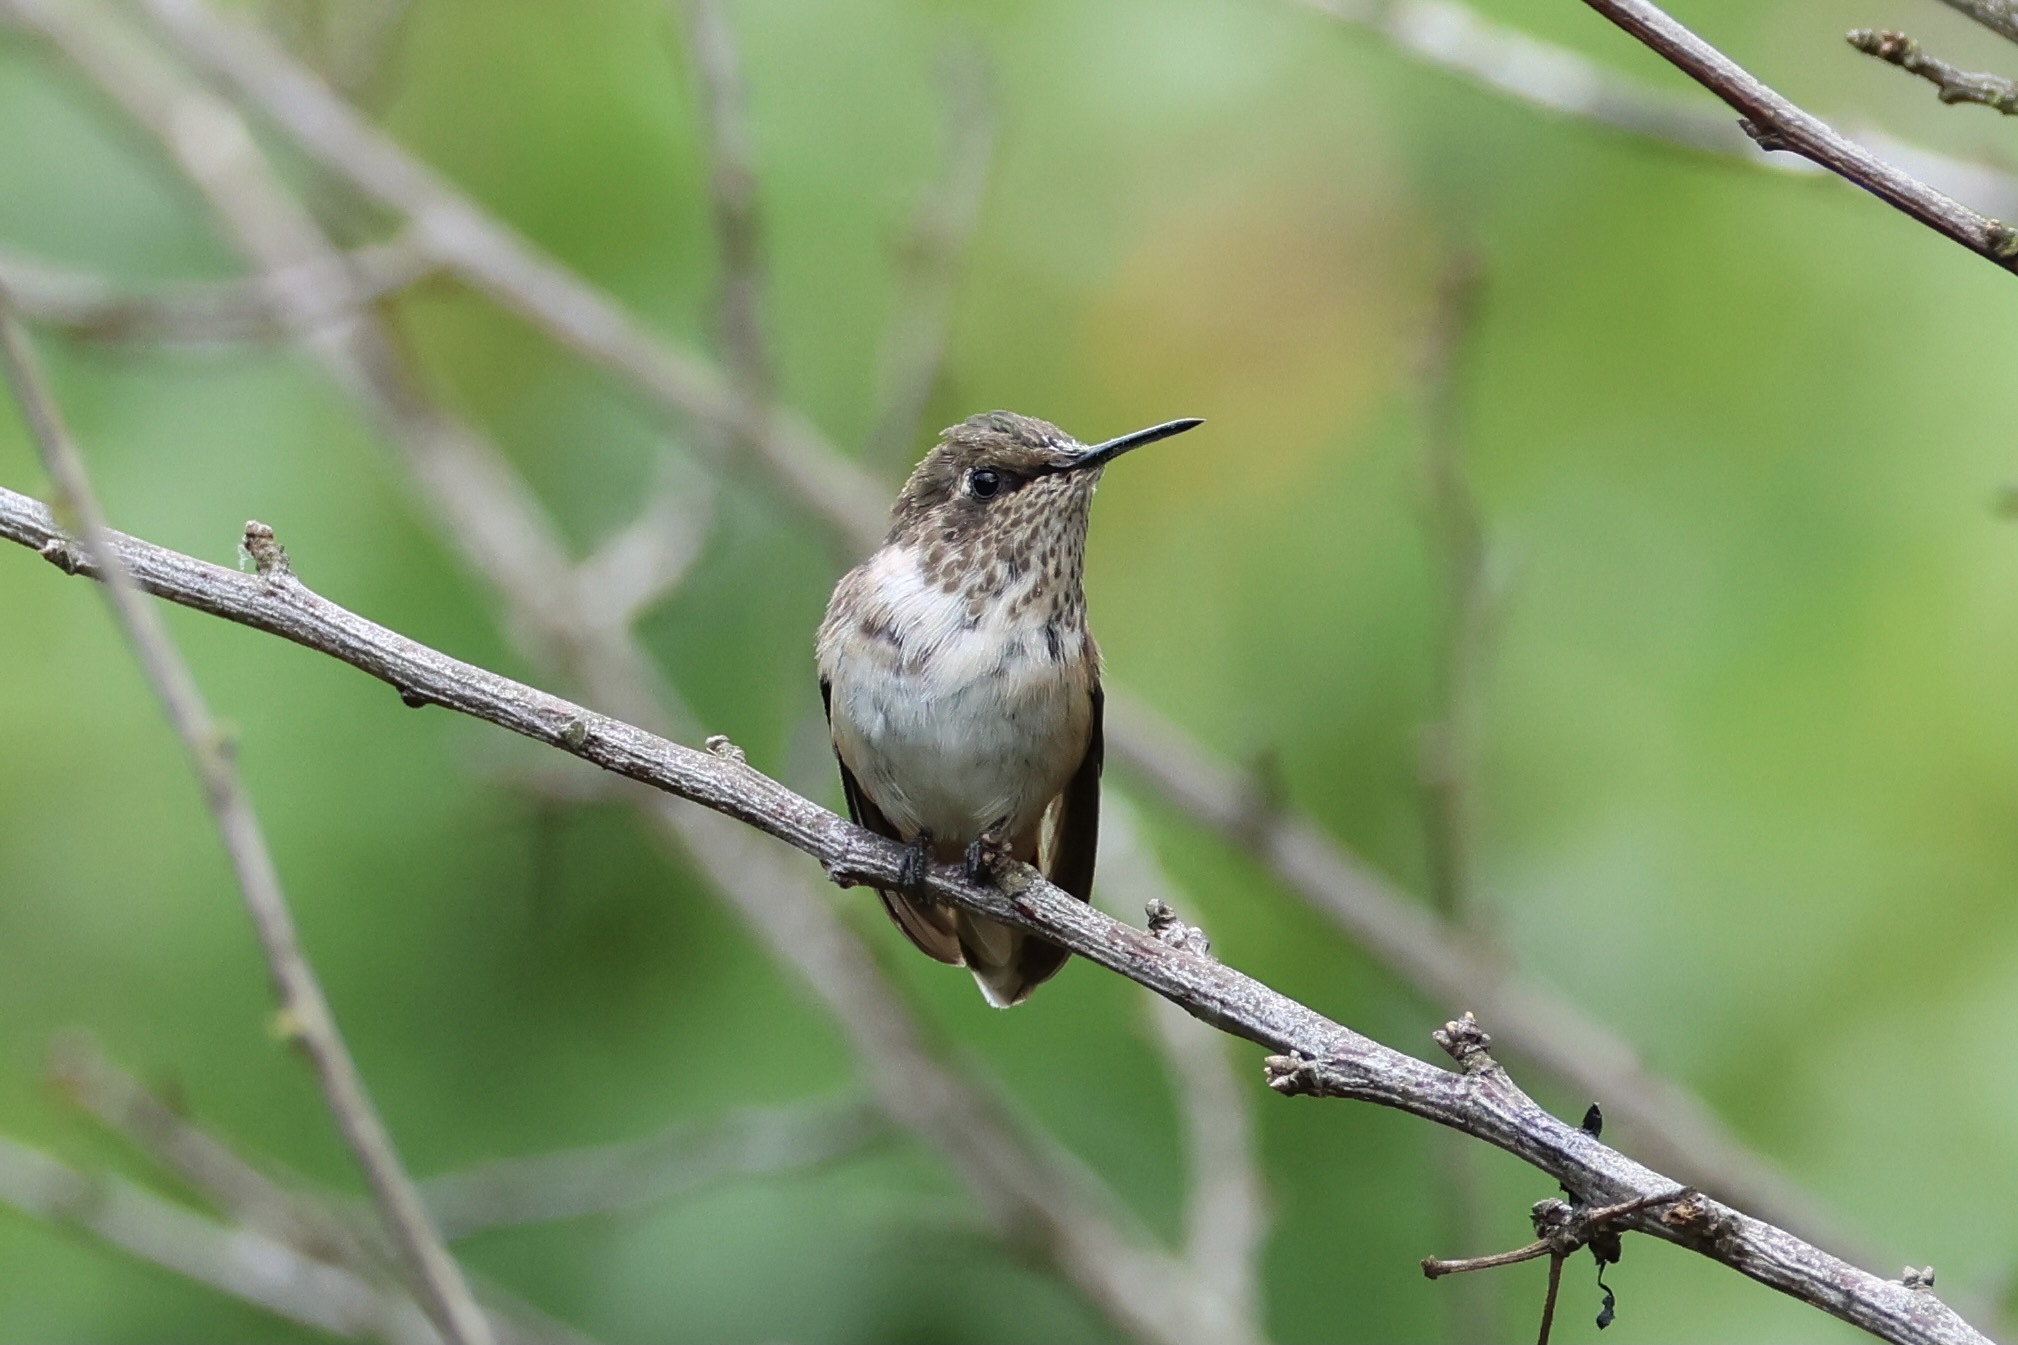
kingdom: Animalia
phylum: Chordata
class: Aves
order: Apodiformes
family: Trochilidae
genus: Selasphorus
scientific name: Selasphorus
